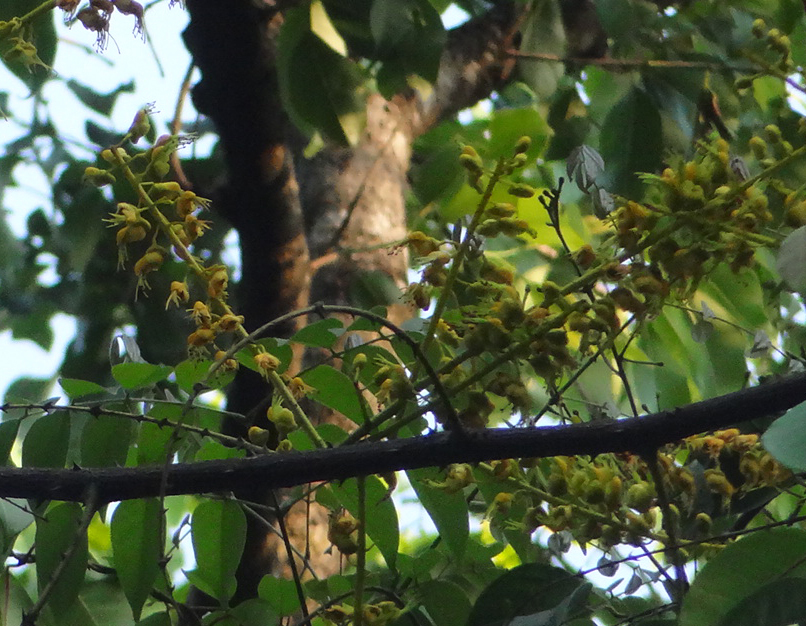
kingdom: Plantae
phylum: Tracheophyta
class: Magnoliopsida
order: Fabales
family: Fabaceae
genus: Mezoneuron
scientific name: Mezoneuron cucullatum
